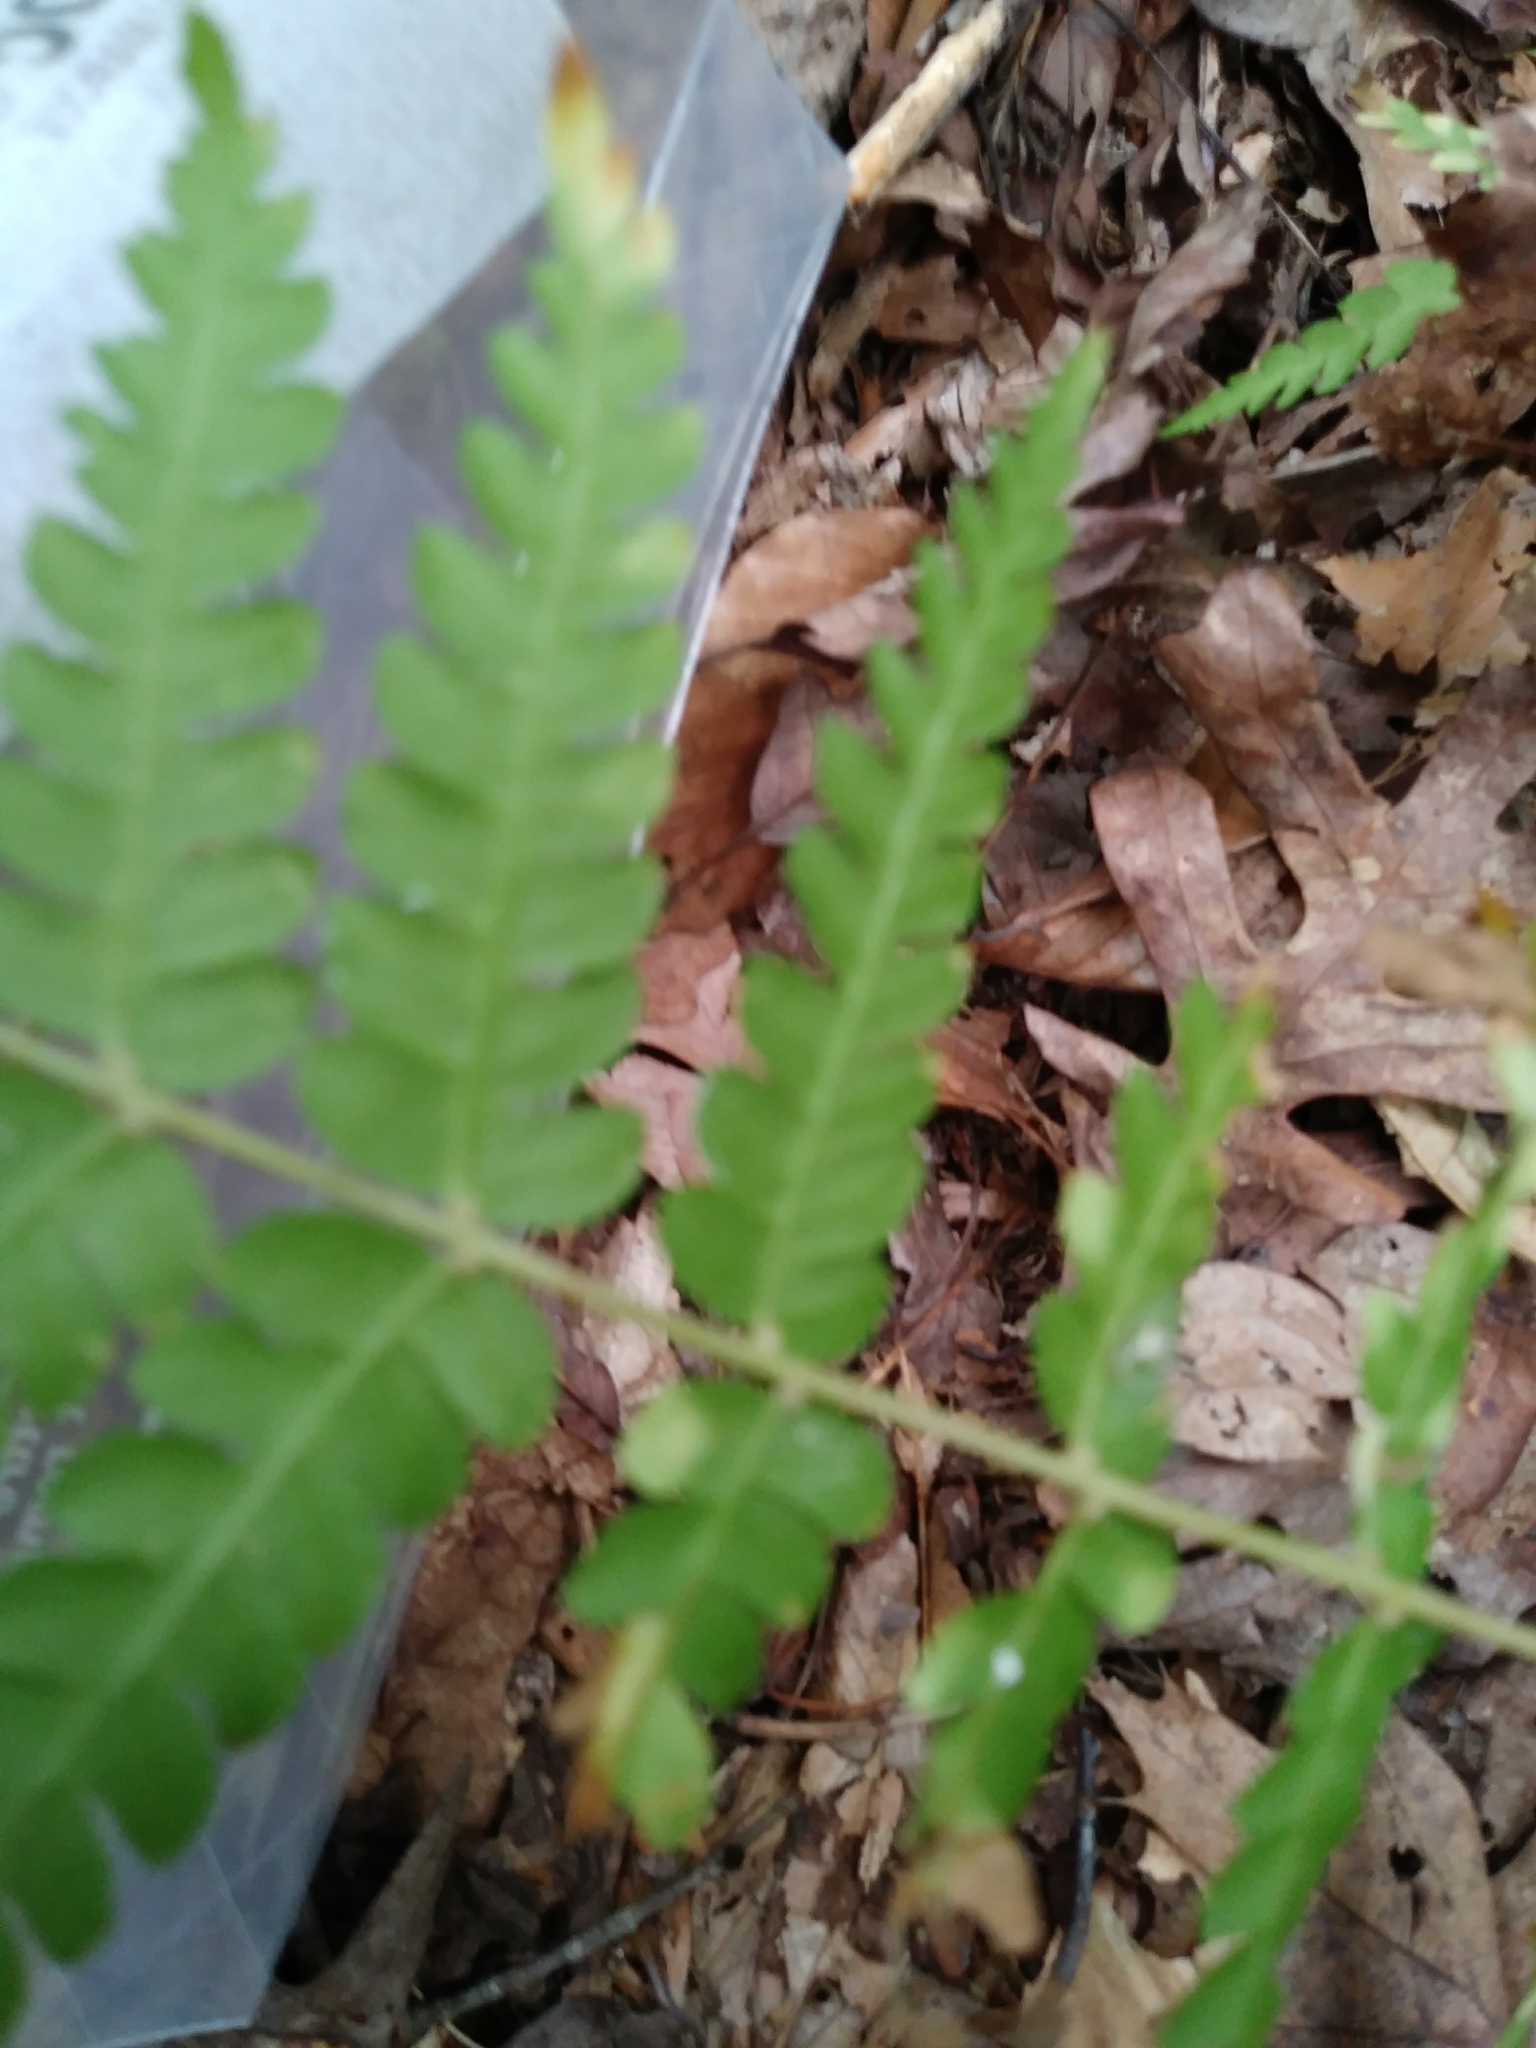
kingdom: Plantae
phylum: Tracheophyta
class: Polypodiopsida
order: Osmundales
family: Osmundaceae
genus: Osmundastrum
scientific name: Osmundastrum cinnamomeum
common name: Cinnamon fern
